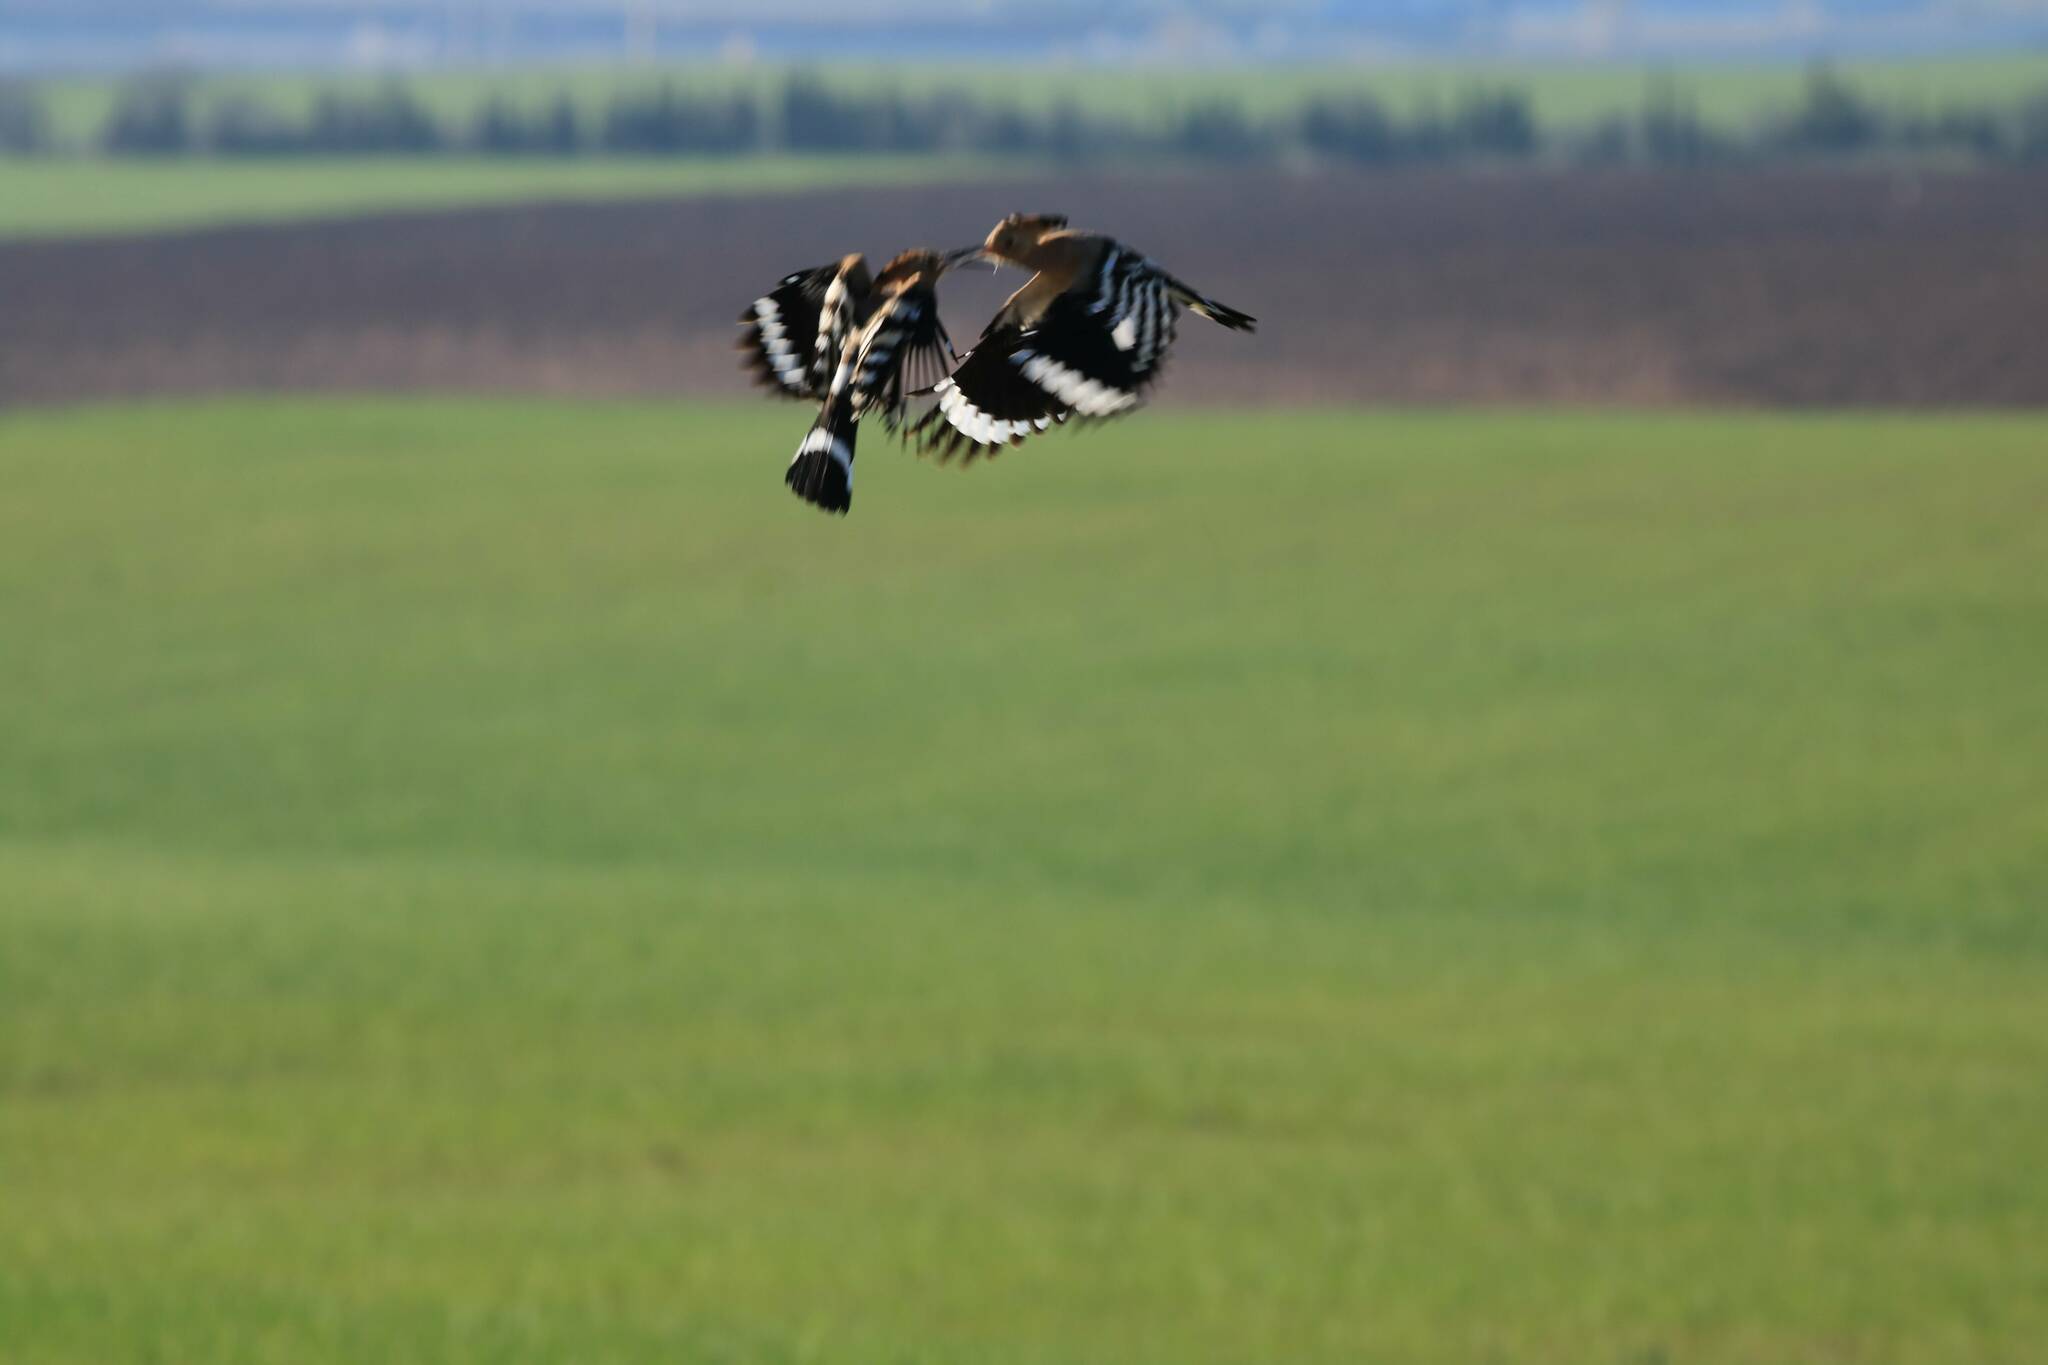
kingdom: Animalia
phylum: Chordata
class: Aves
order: Bucerotiformes
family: Upupidae
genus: Upupa
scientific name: Upupa epops
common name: Eurasian hoopoe
